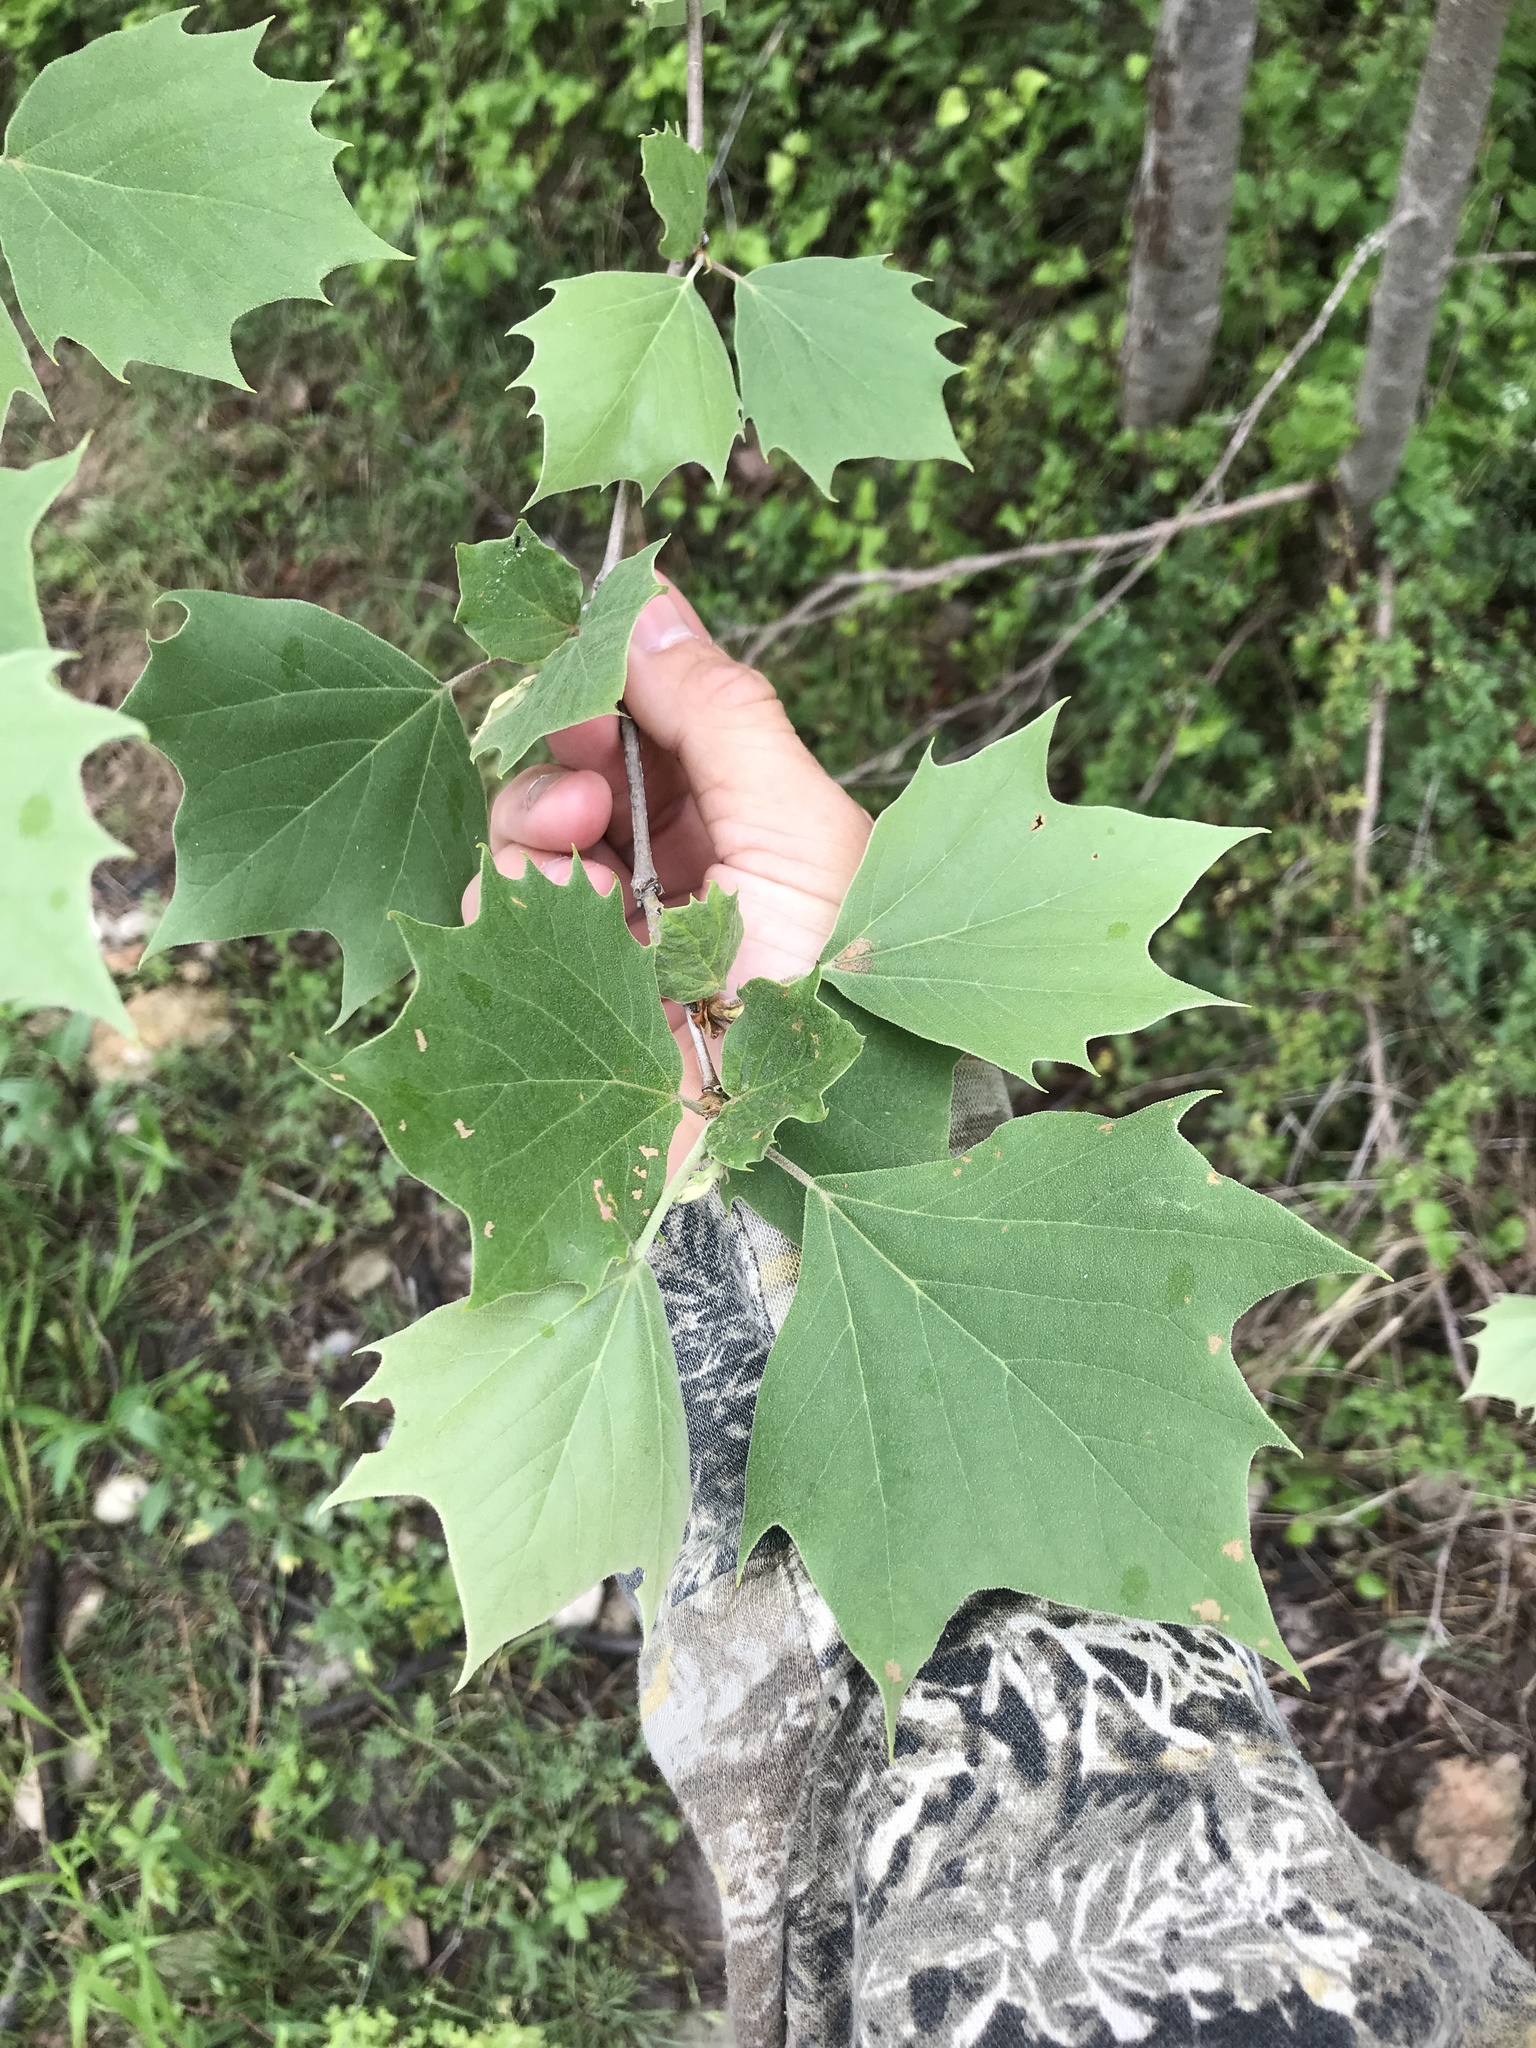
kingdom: Plantae
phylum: Tracheophyta
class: Magnoliopsida
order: Proteales
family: Platanaceae
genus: Platanus
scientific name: Platanus occidentalis
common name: American sycamore
